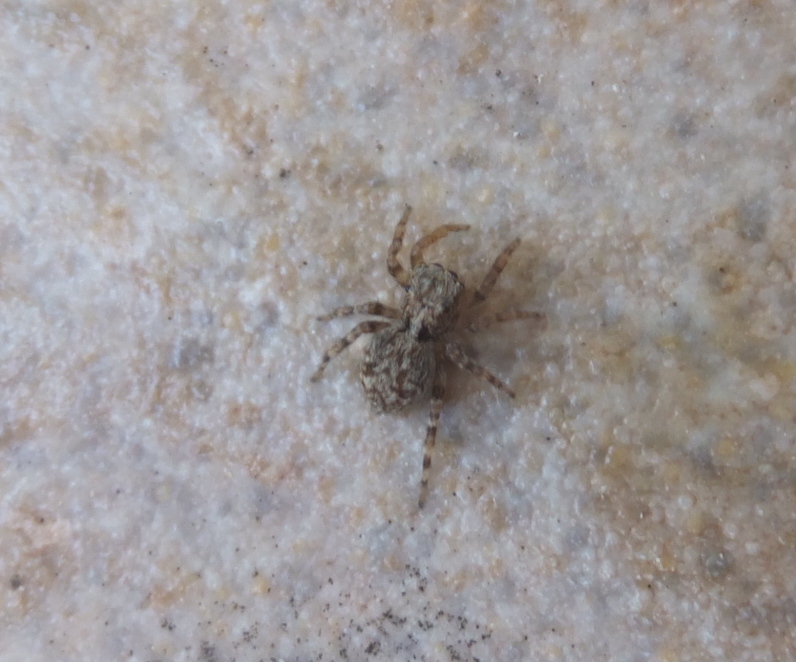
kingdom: Animalia
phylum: Arthropoda
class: Arachnida
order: Araneae
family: Salticidae
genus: Pseudeuophrys
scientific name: Pseudeuophrys vafra
